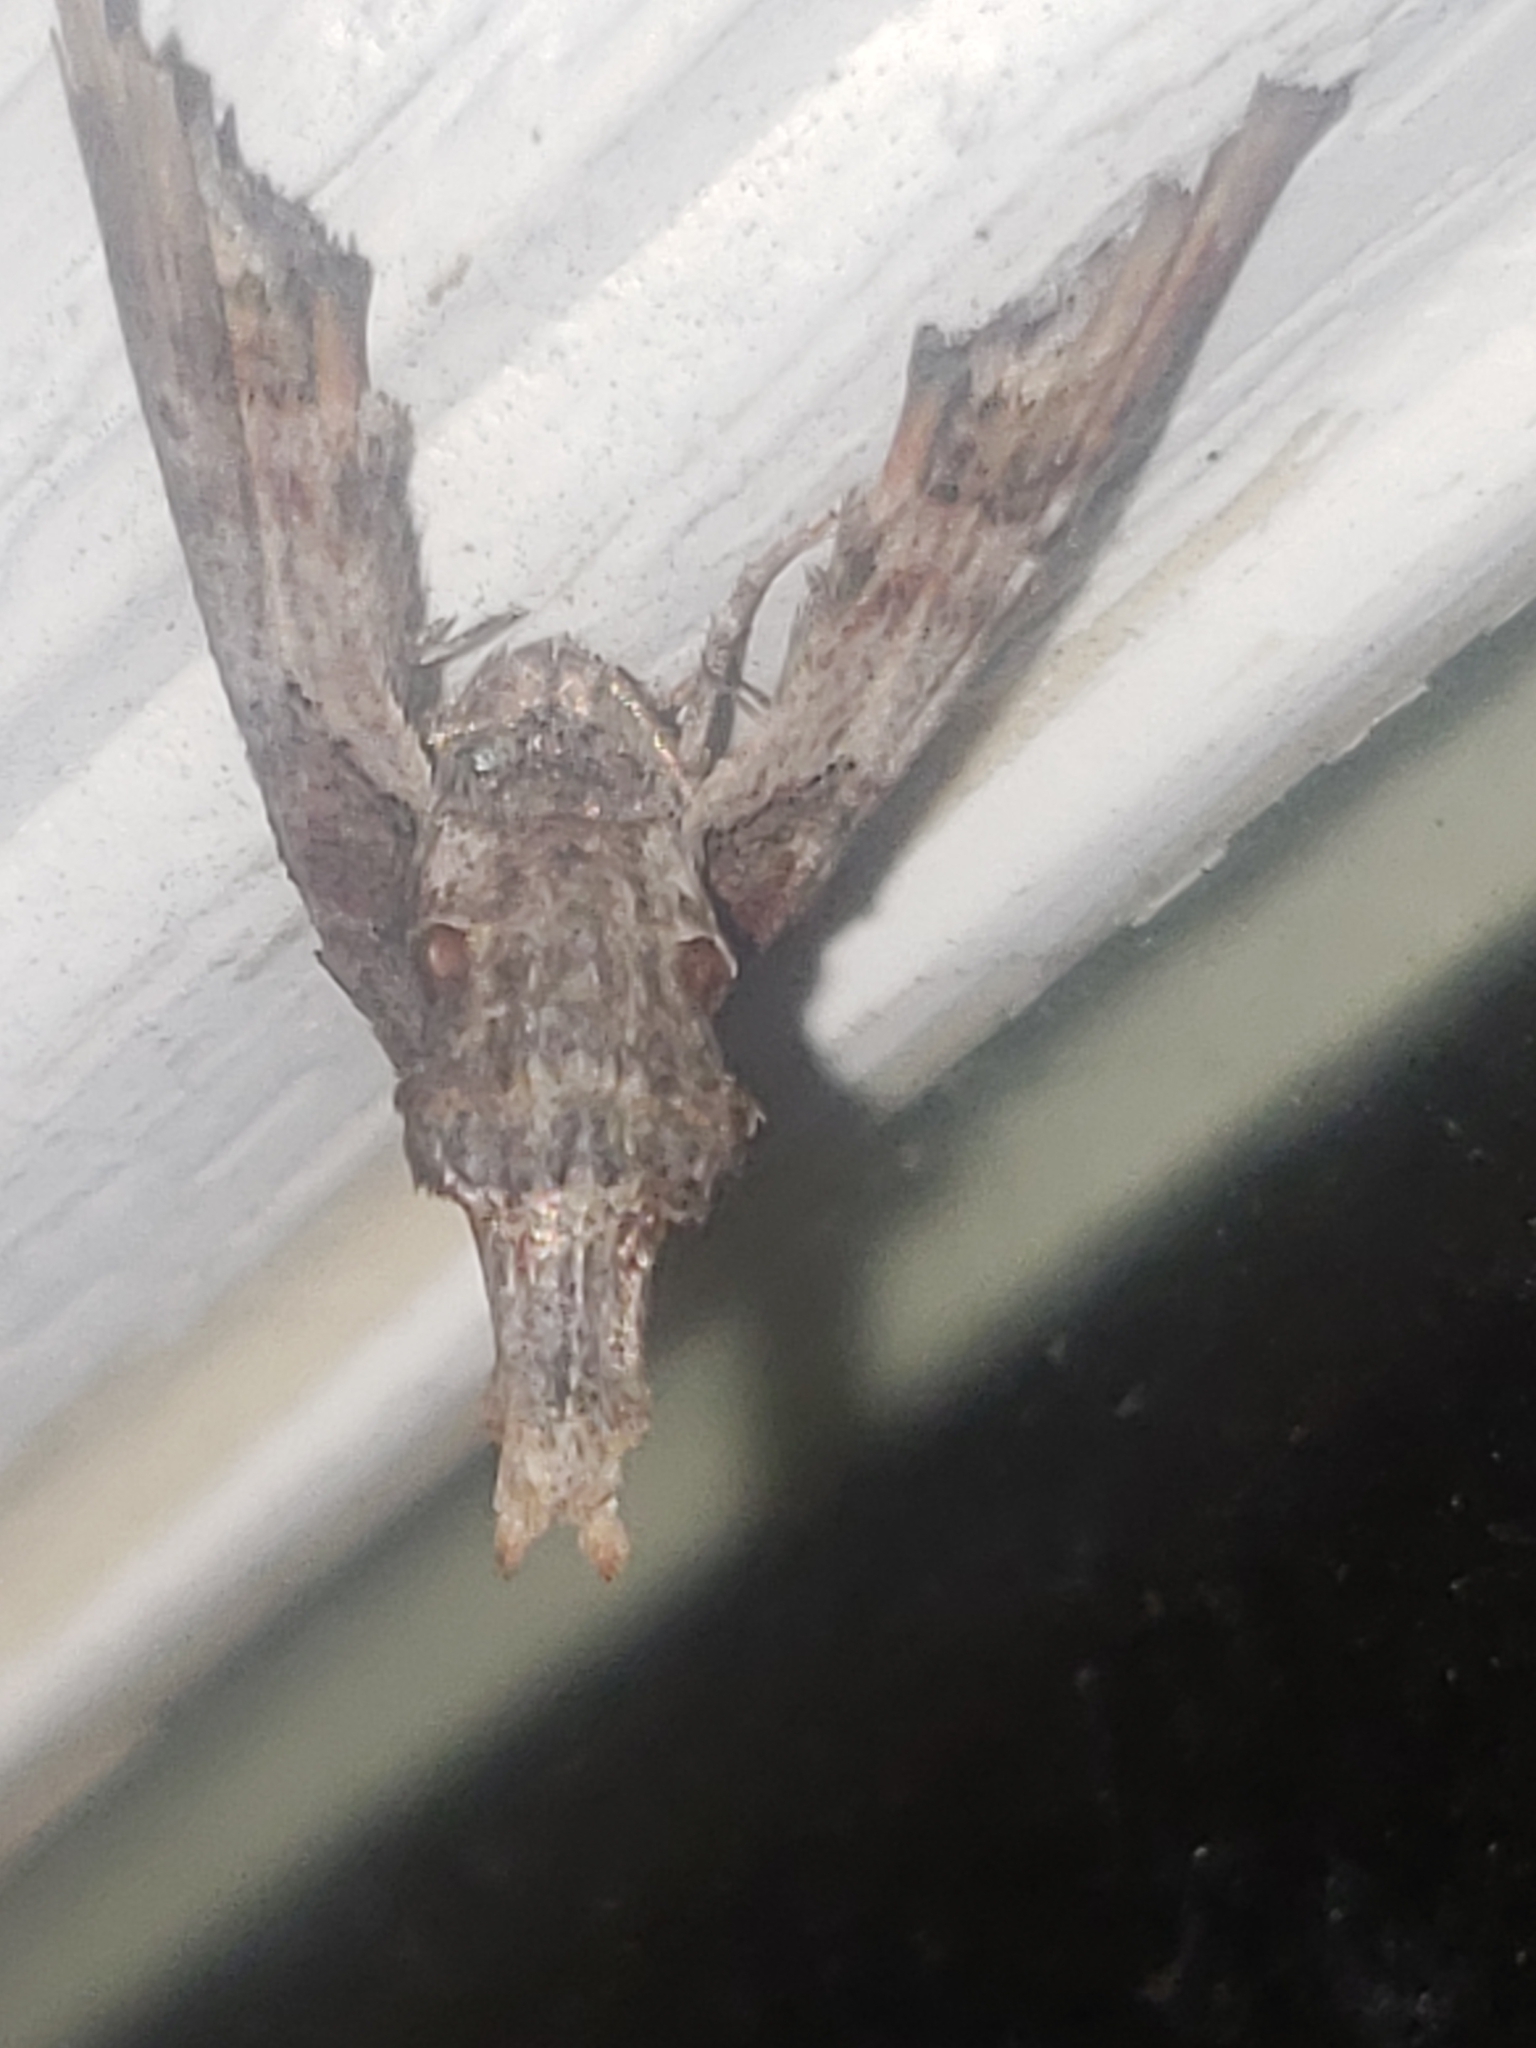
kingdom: Animalia
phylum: Arthropoda
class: Insecta
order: Lepidoptera
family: Euteliidae
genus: Marathyssa
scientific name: Marathyssa inficita
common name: Dark marathyssa moth
